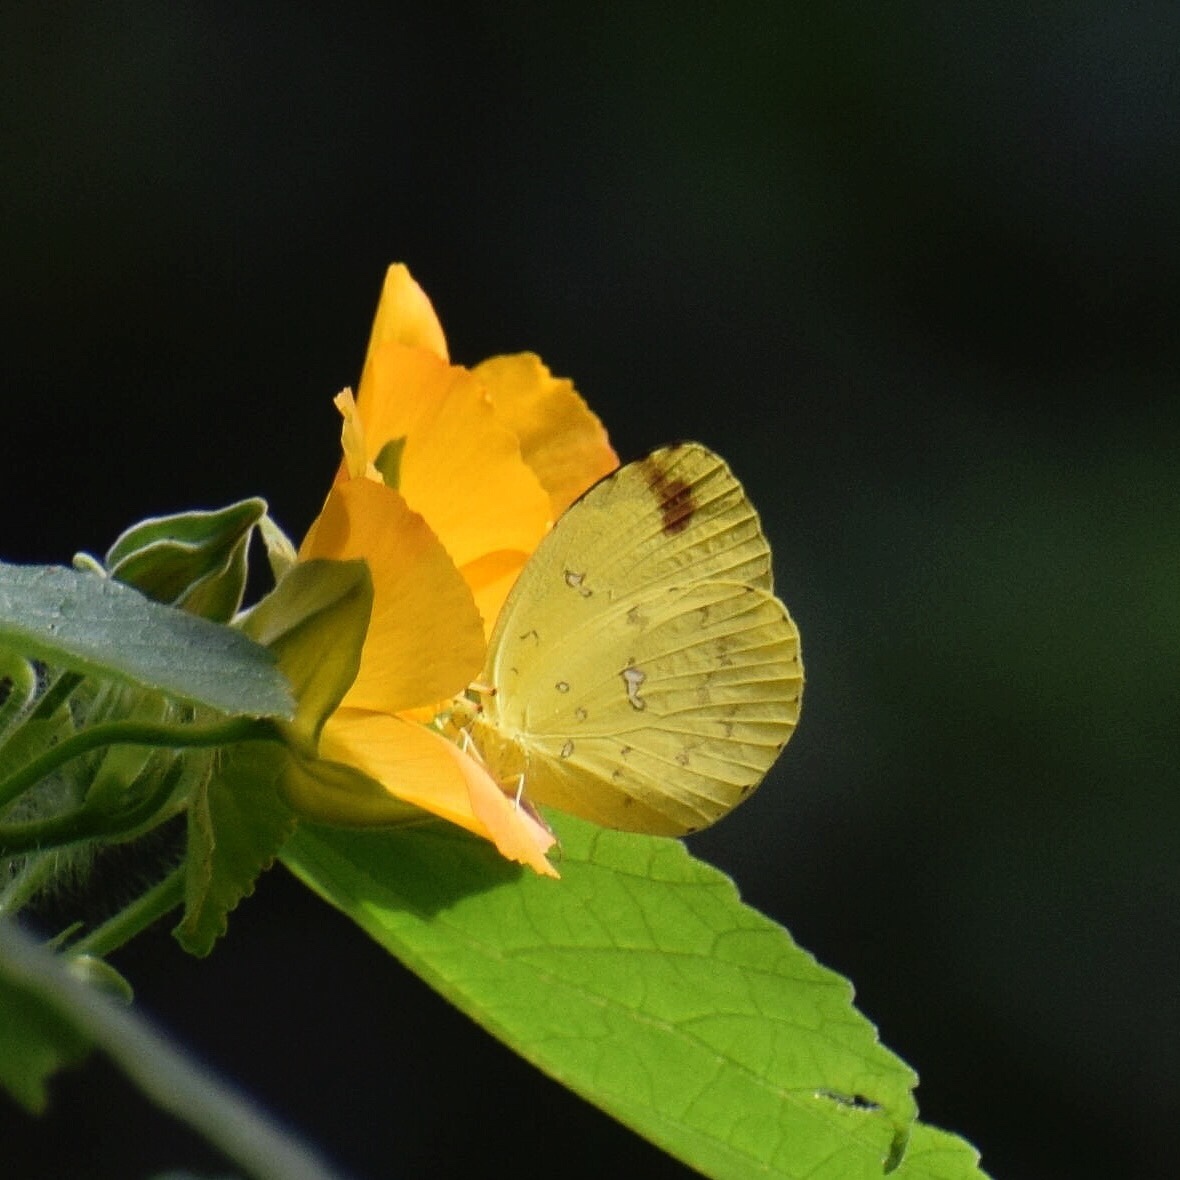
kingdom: Animalia
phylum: Arthropoda
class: Insecta
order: Lepidoptera
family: Pieridae
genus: Eurema
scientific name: Eurema floricola
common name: Malagasy grass yellow
